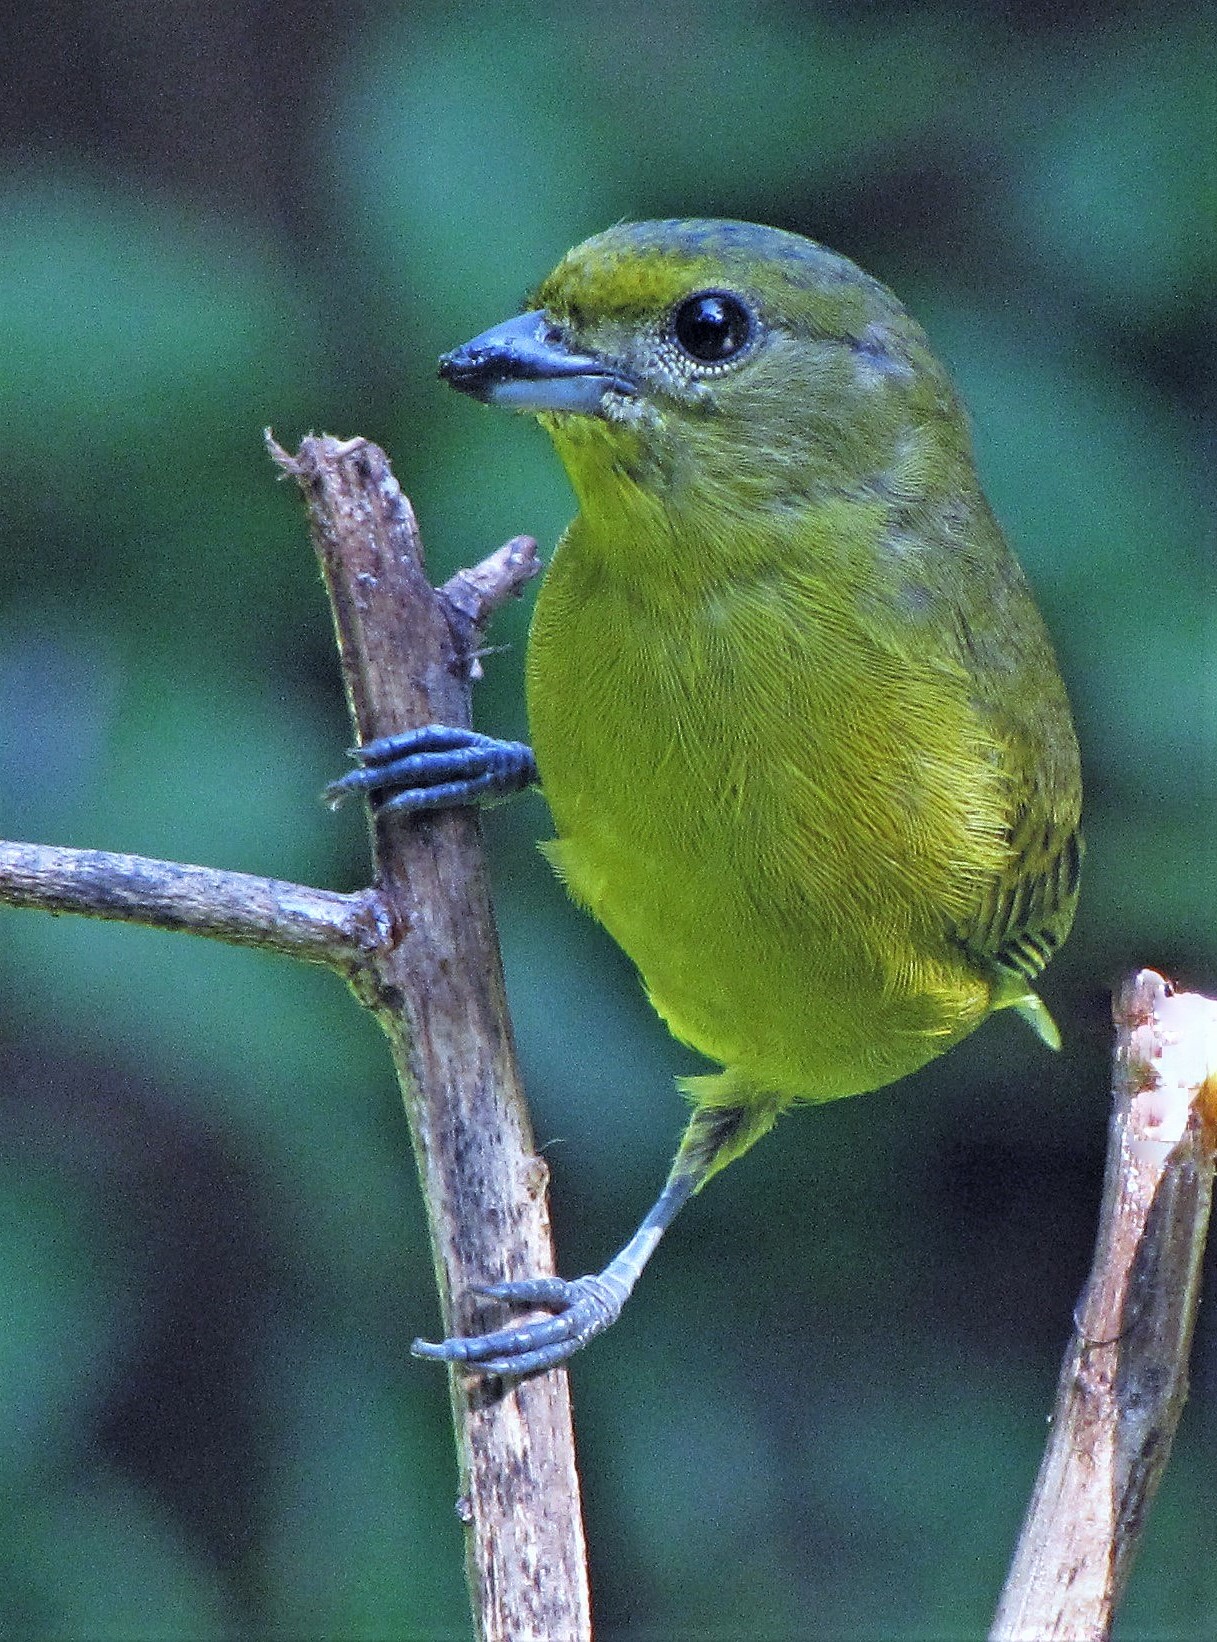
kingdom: Animalia
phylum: Chordata
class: Aves
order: Passeriformes
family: Fringillidae
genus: Euphonia
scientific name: Euphonia violacea
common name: Violaceous euphonia
